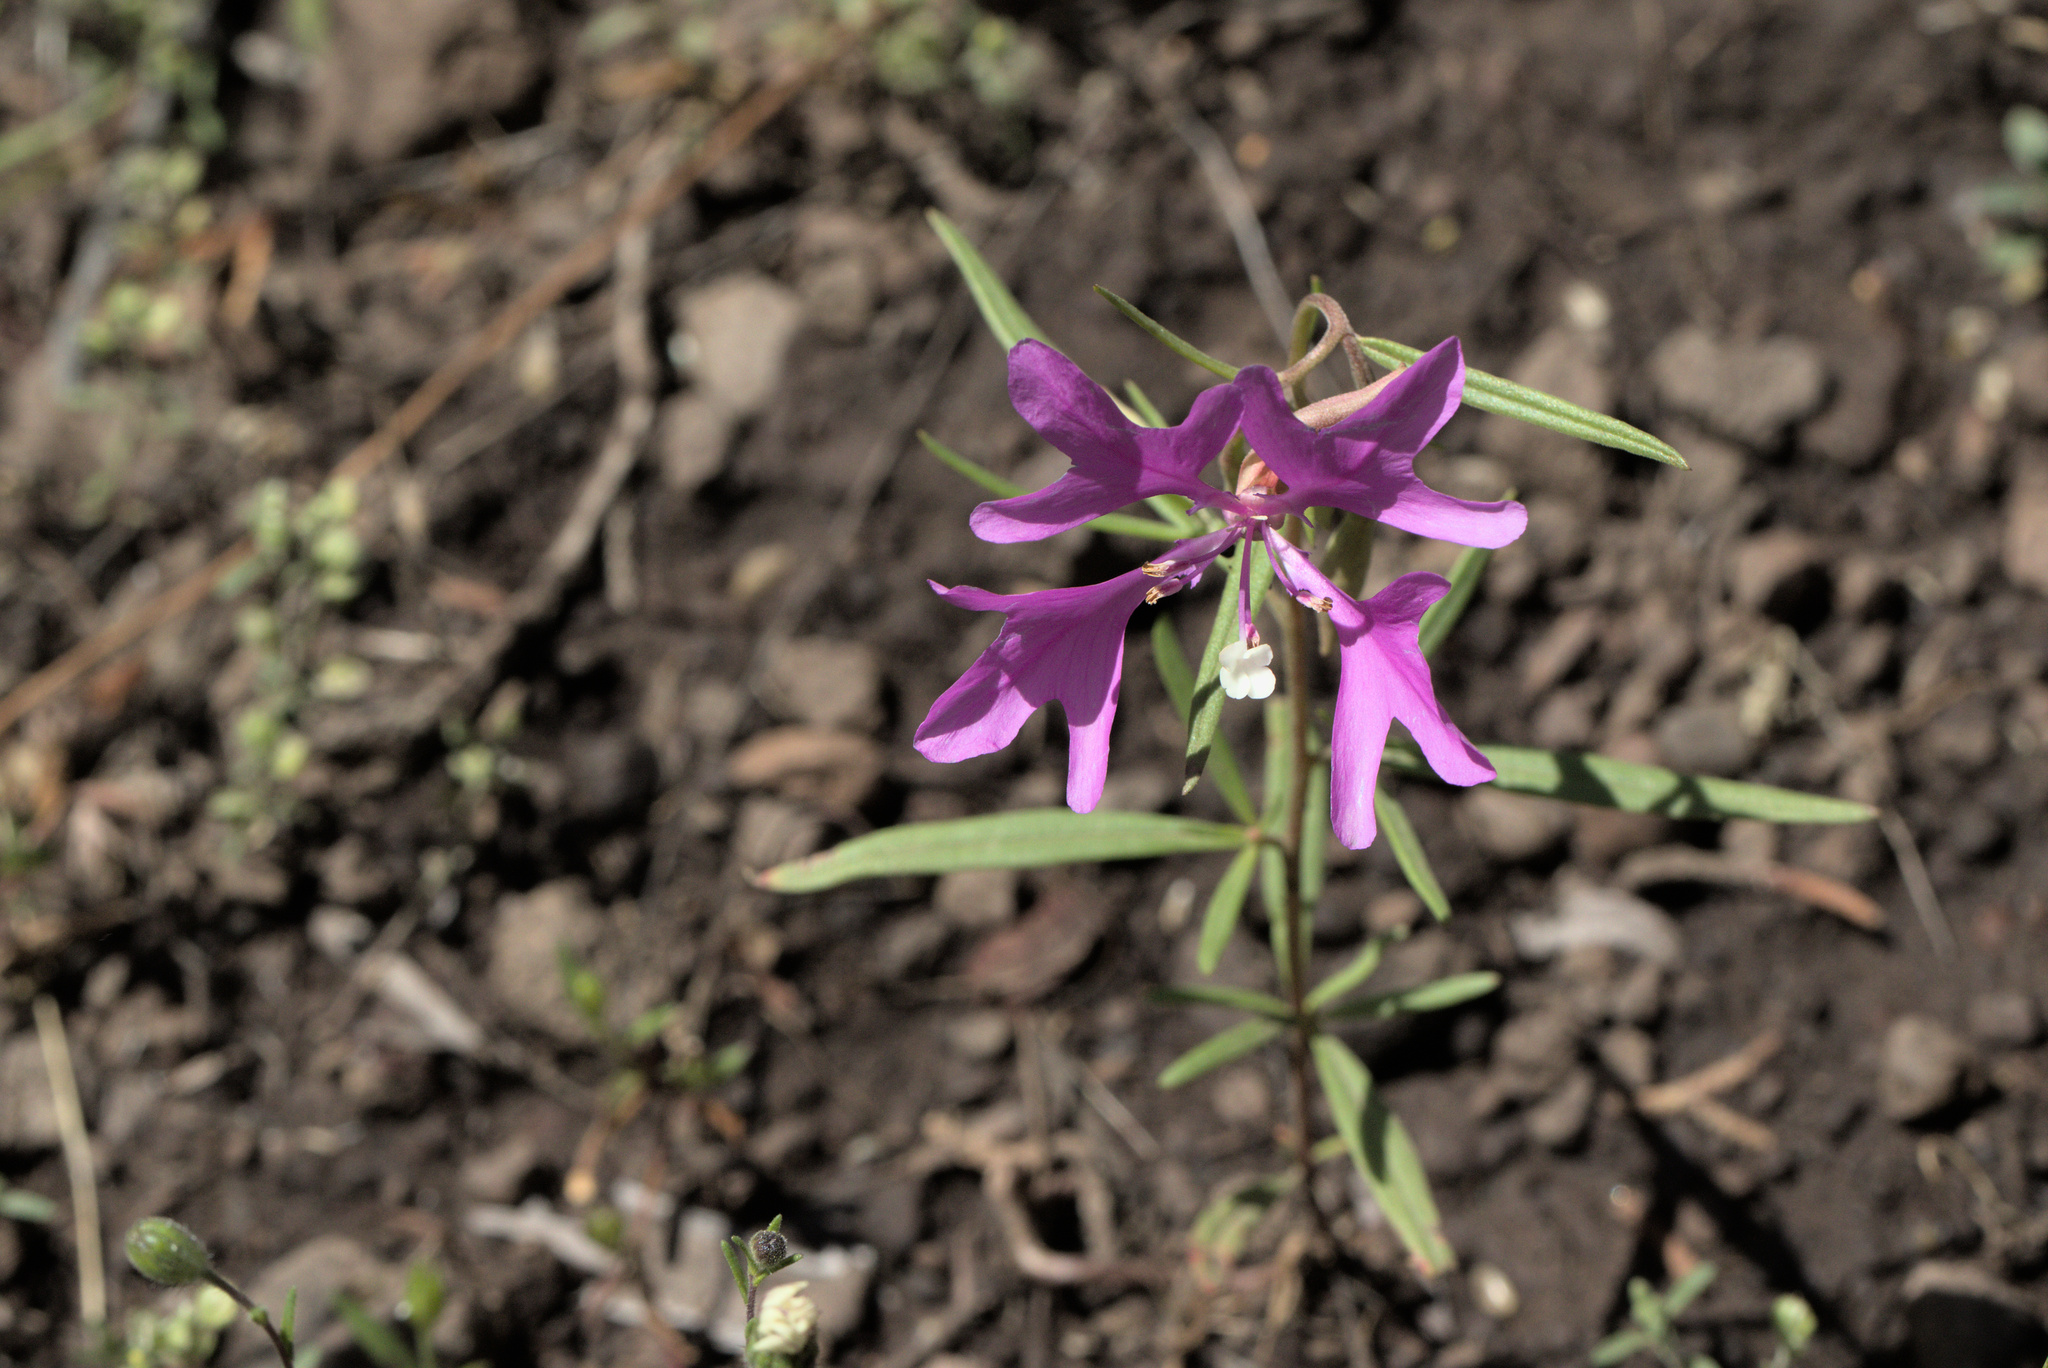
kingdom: Plantae
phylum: Tracheophyta
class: Magnoliopsida
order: Myrtales
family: Onagraceae
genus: Clarkia
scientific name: Clarkia pulchella
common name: Deer horn
